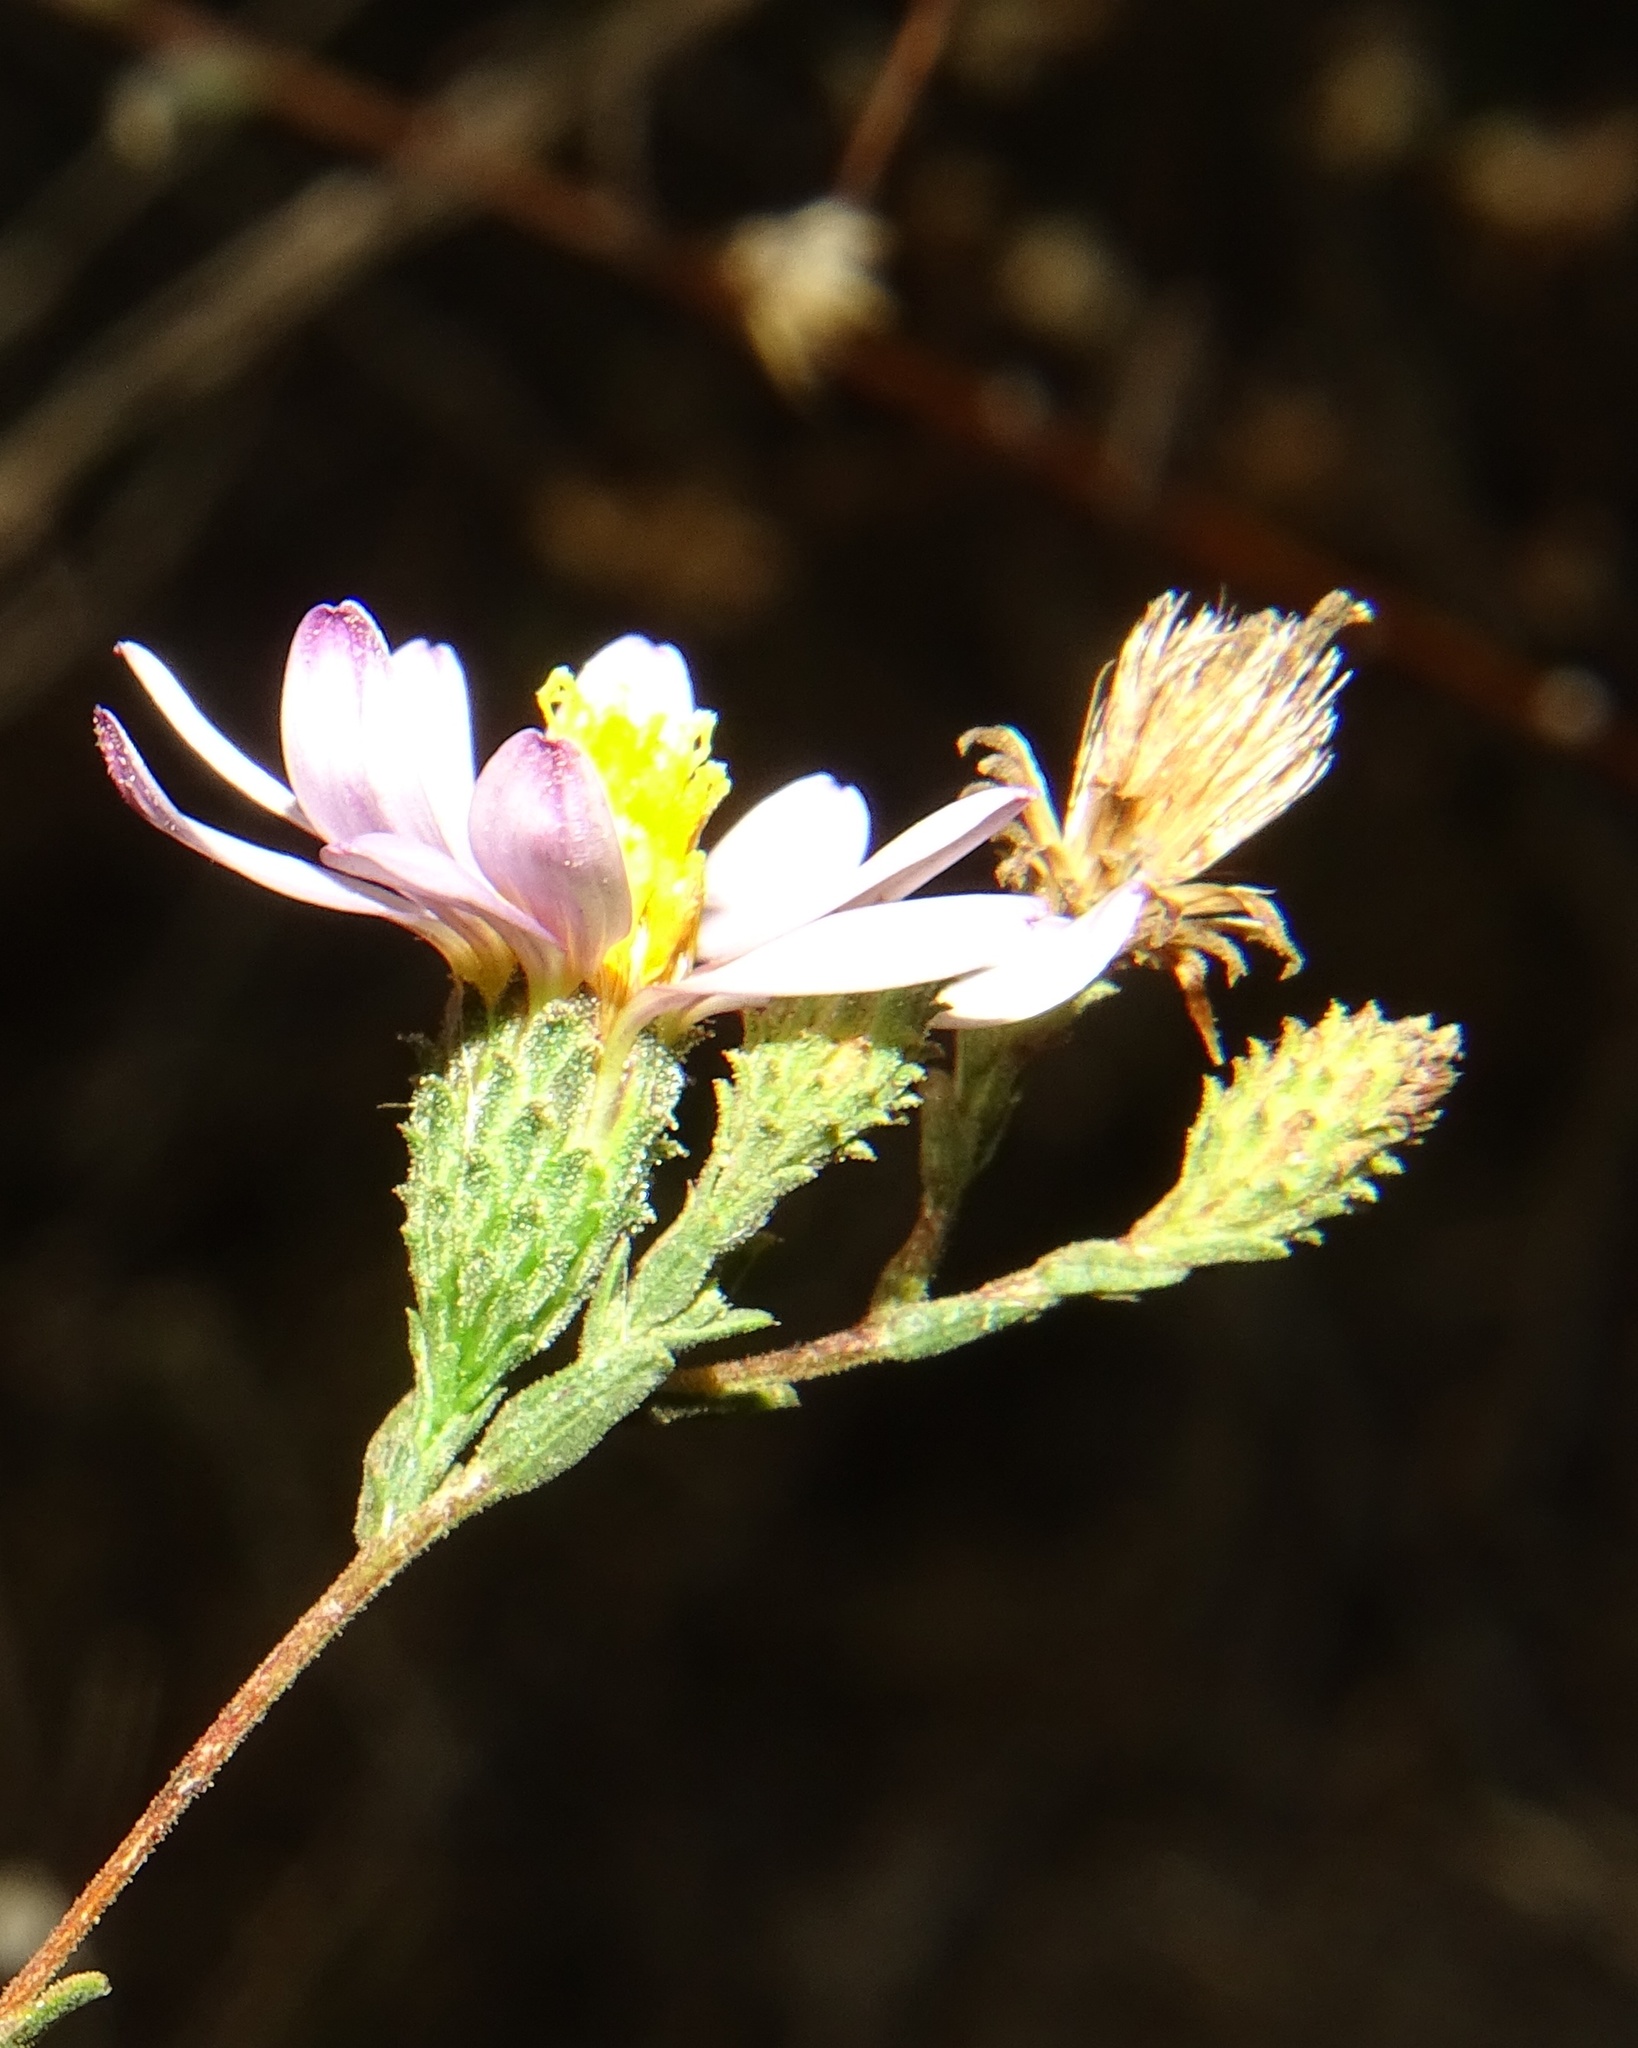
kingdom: Plantae
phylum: Tracheophyta
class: Magnoliopsida
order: Asterales
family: Asteraceae
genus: Corethrogyne
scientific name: Corethrogyne filaginifolia
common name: Sand-aster
